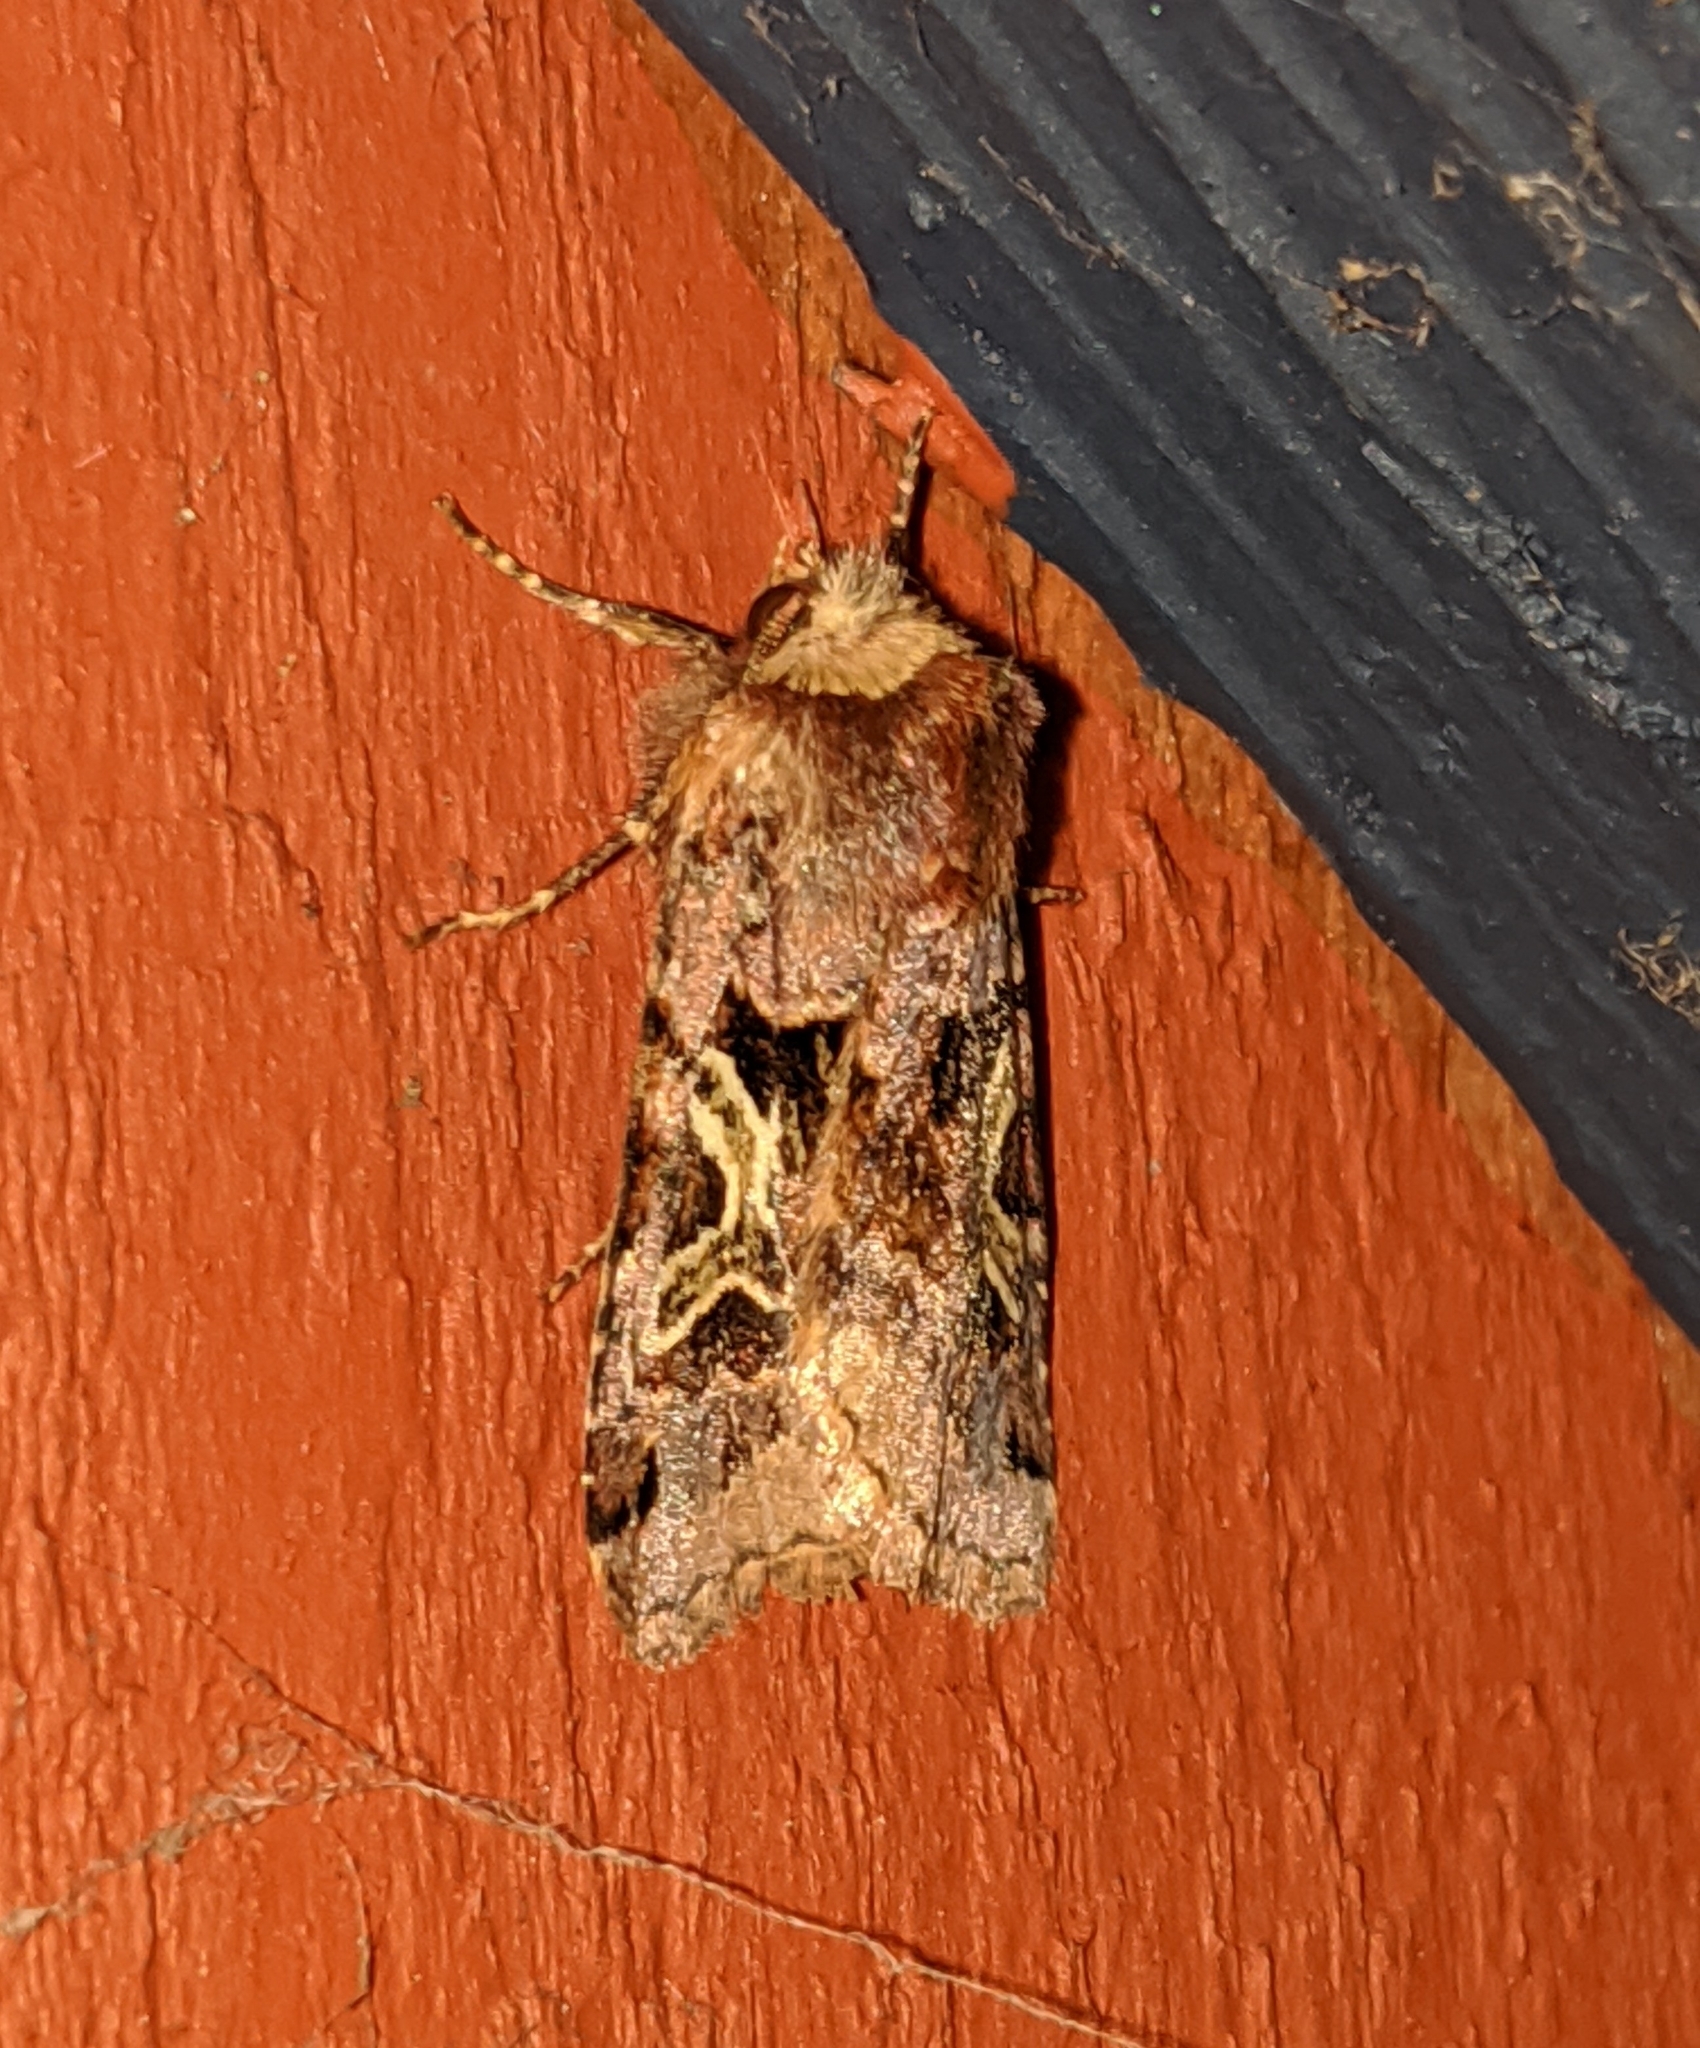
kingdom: Animalia
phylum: Arthropoda
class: Insecta
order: Lepidoptera
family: Noctuidae
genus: Cerastis
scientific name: Cerastis enigmatica
